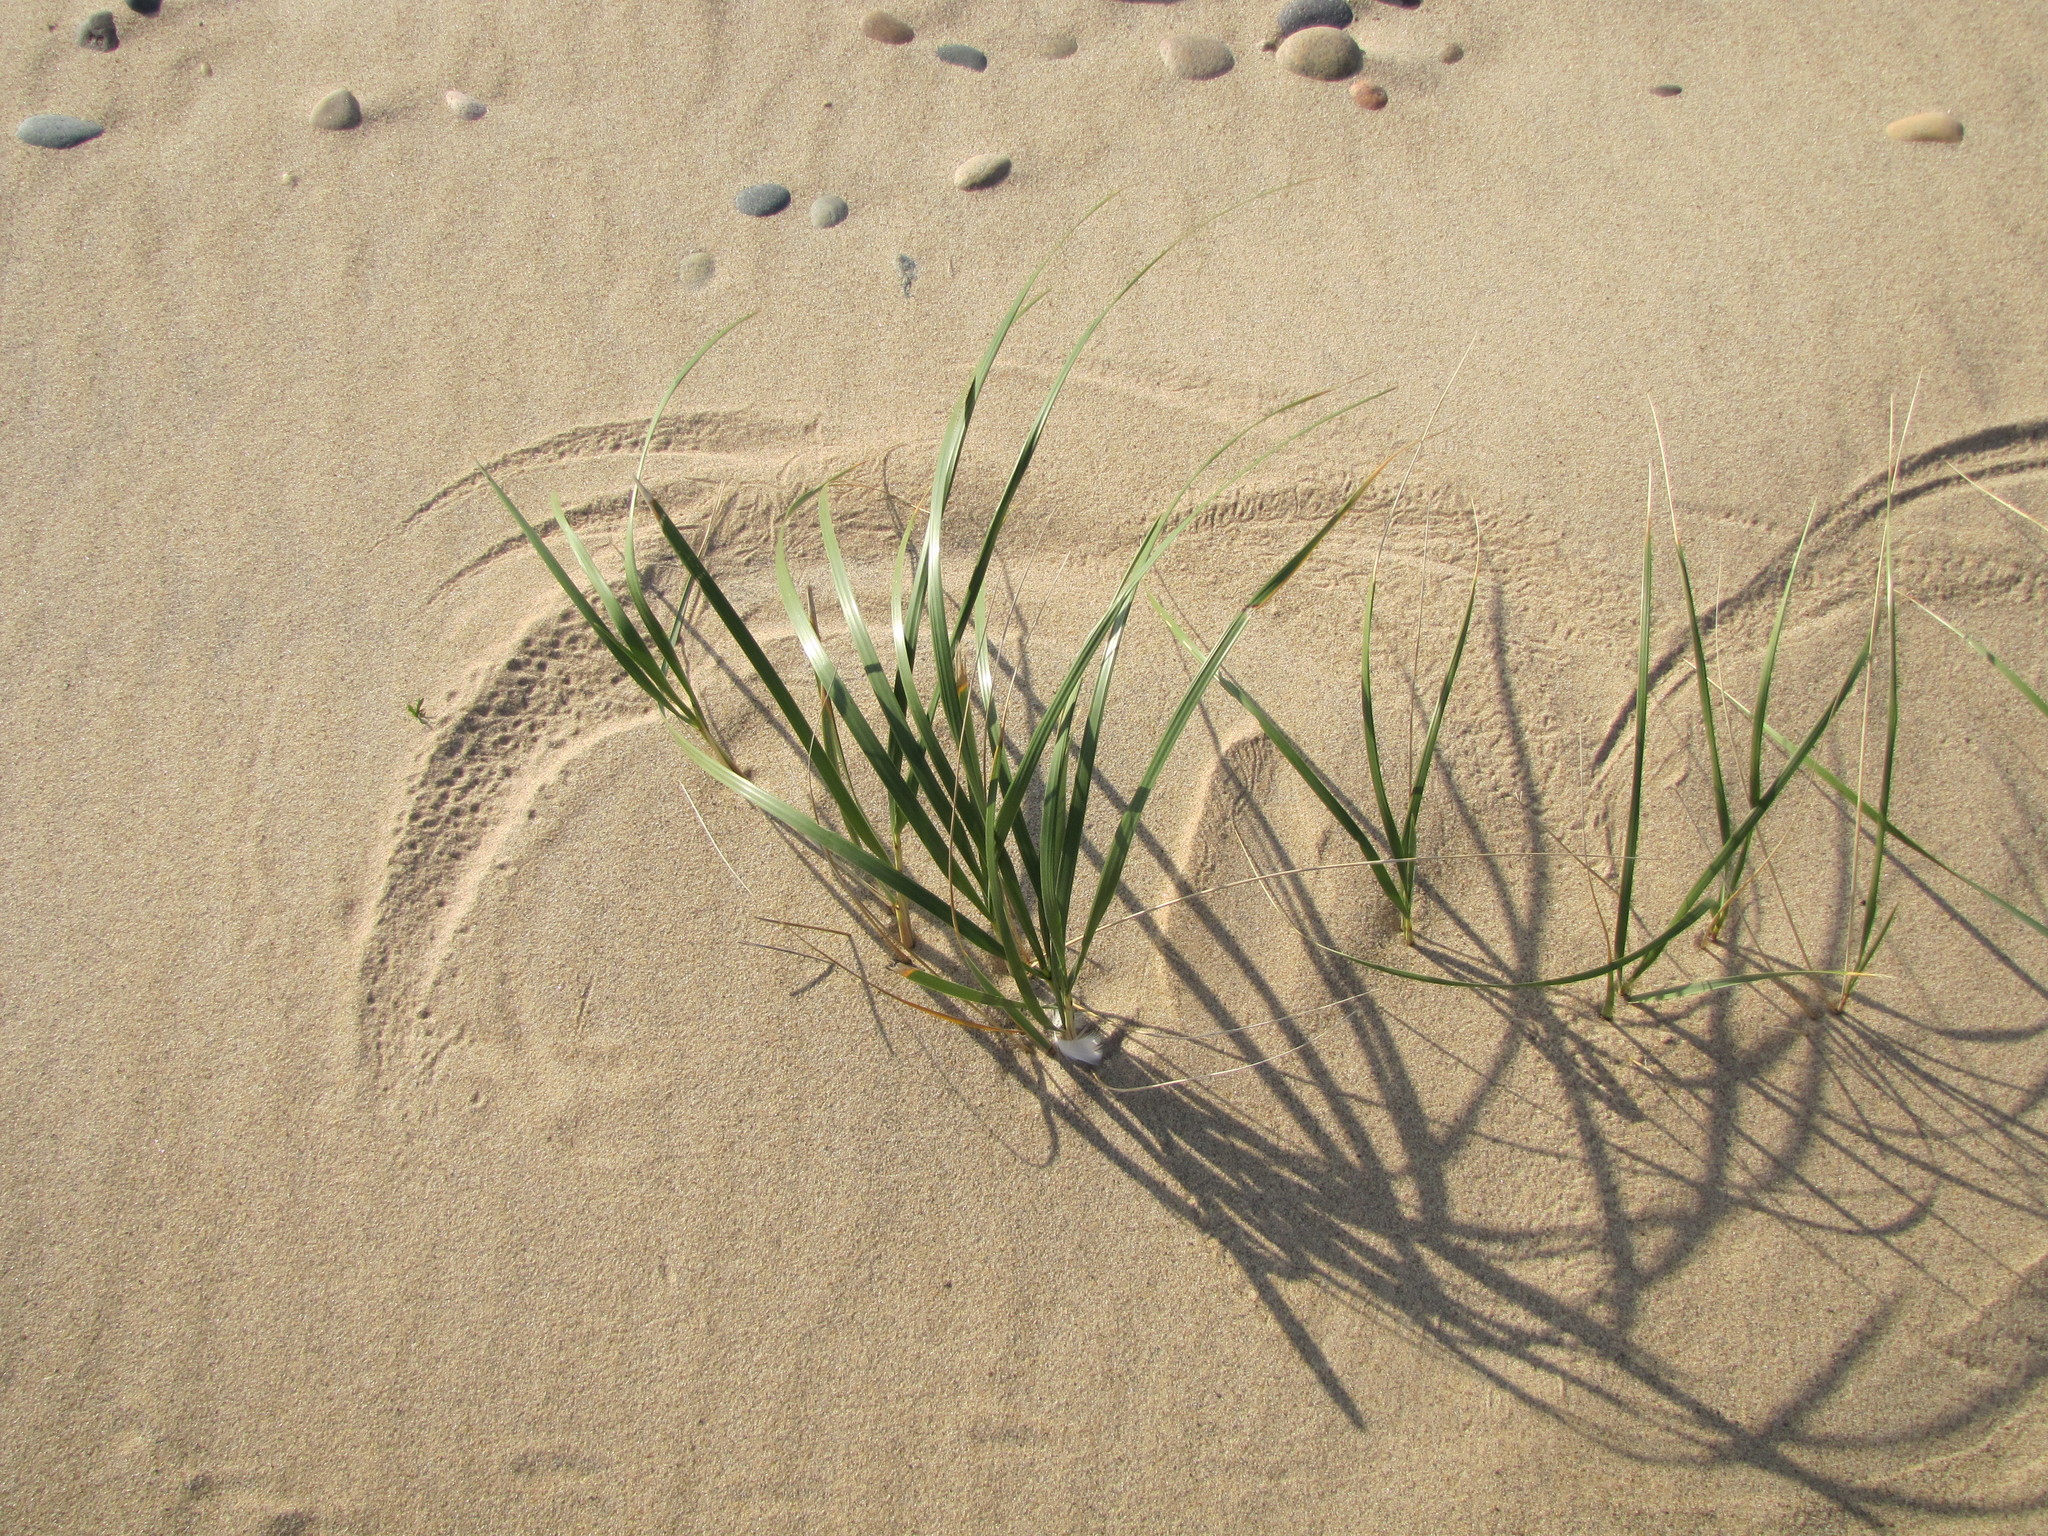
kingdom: Plantae
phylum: Tracheophyta
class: Liliopsida
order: Poales
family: Poaceae
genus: Calamagrostis
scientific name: Calamagrostis breviligulata
